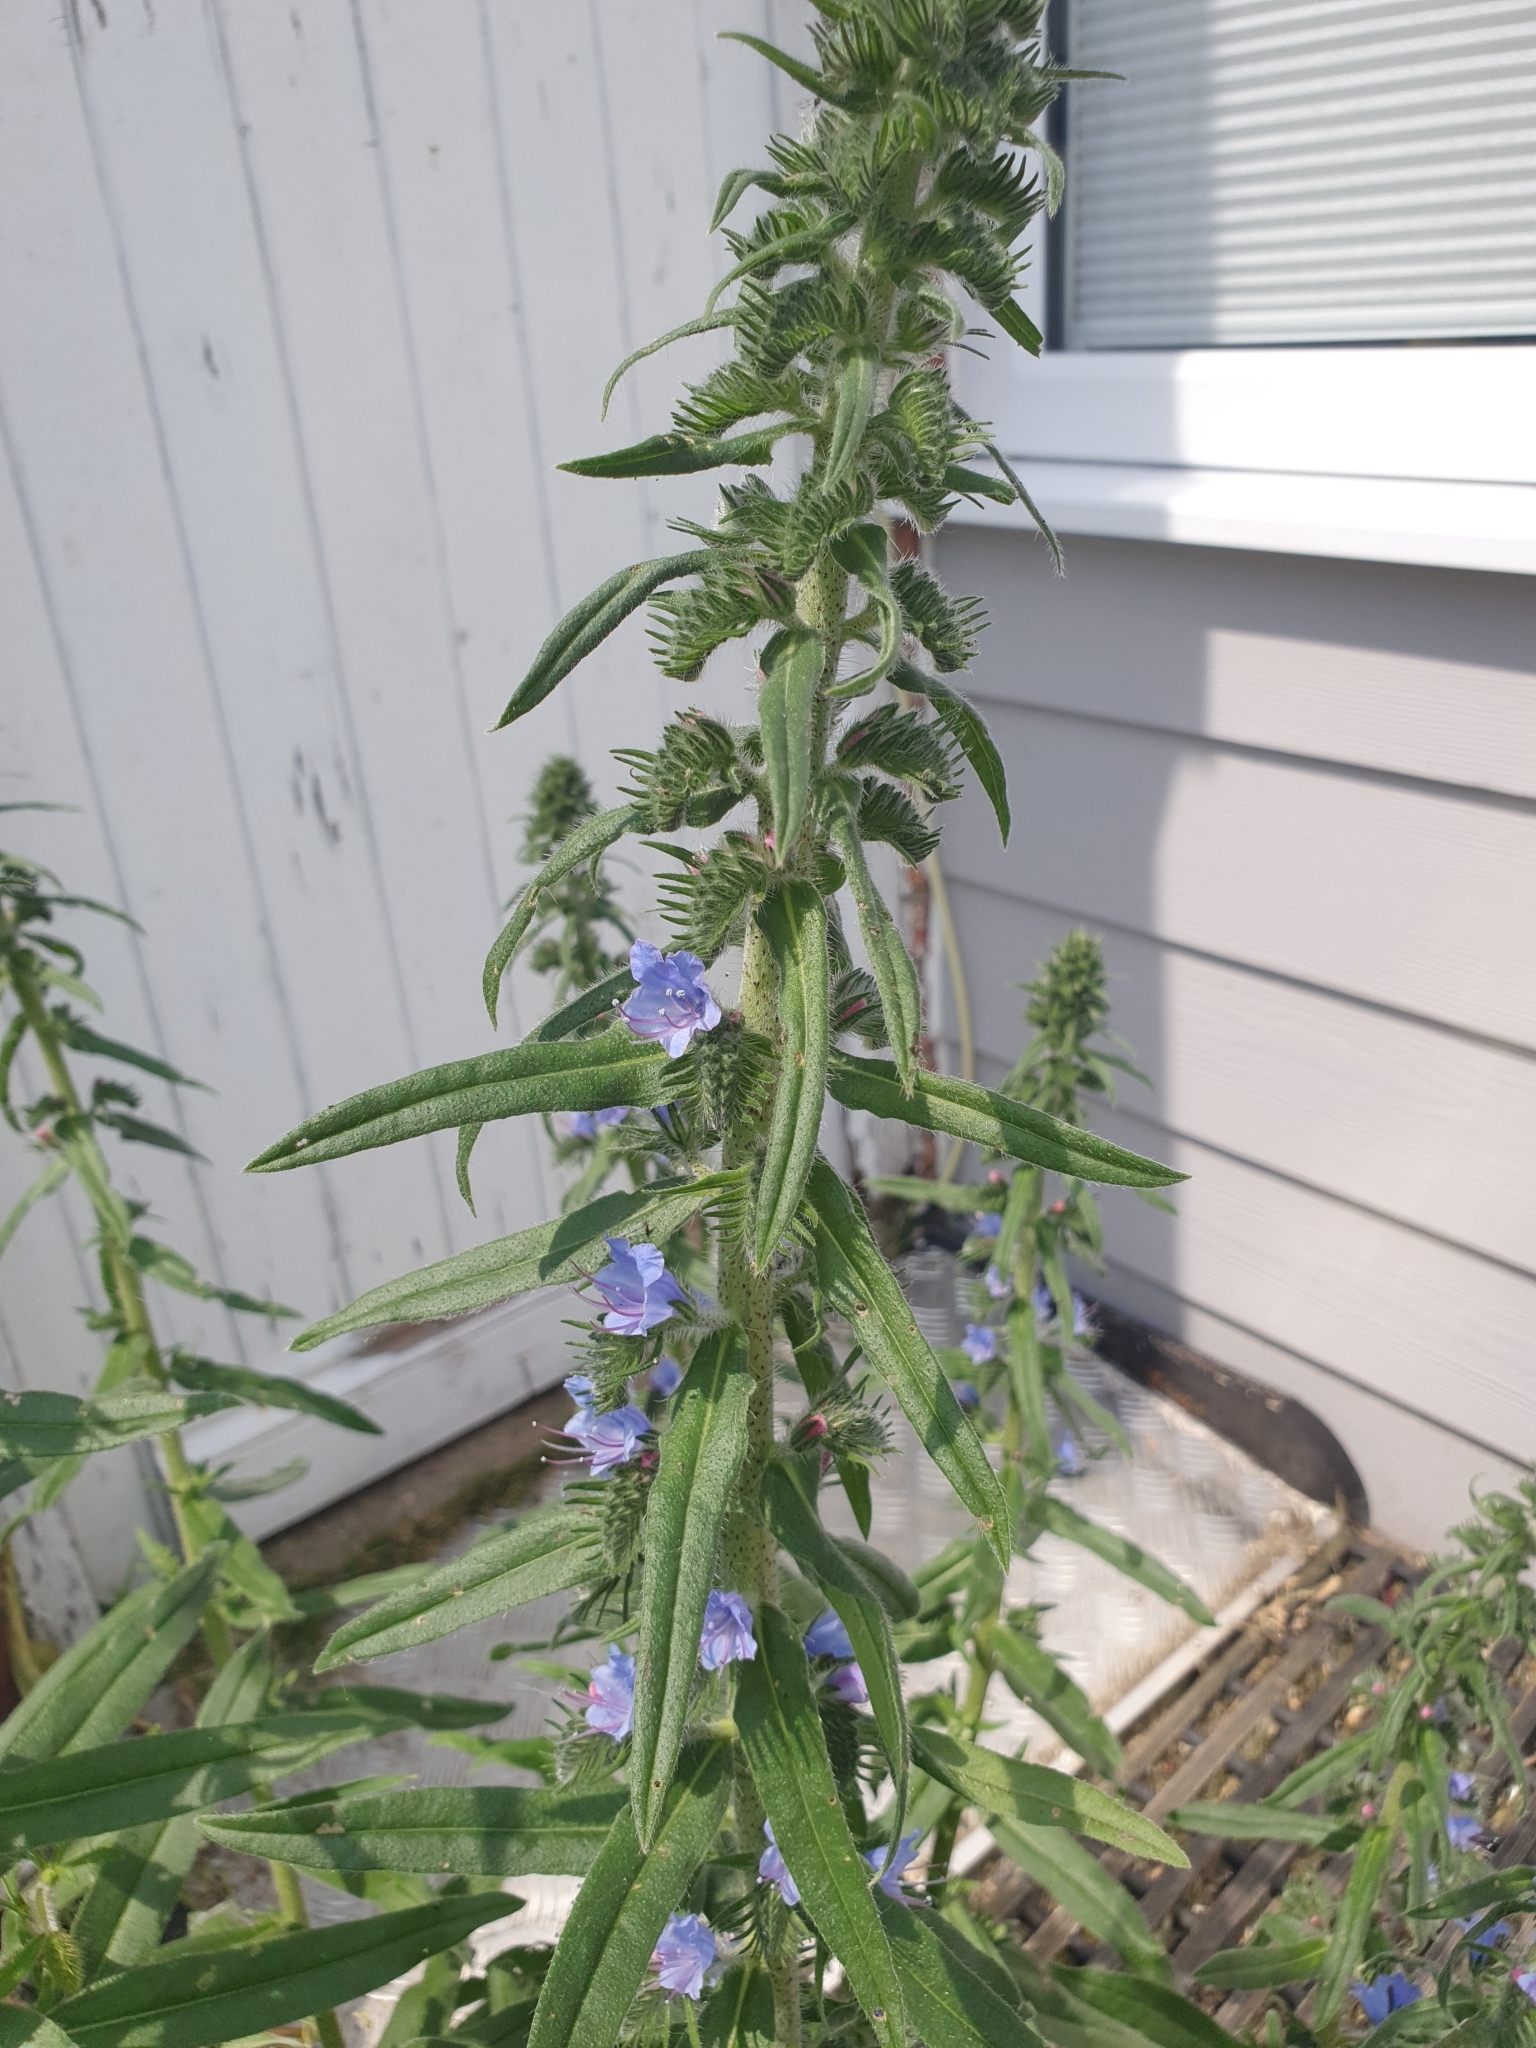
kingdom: Plantae
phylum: Tracheophyta
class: Magnoliopsida
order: Boraginales
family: Boraginaceae
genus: Echium
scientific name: Echium vulgare
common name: Common viper's bugloss
